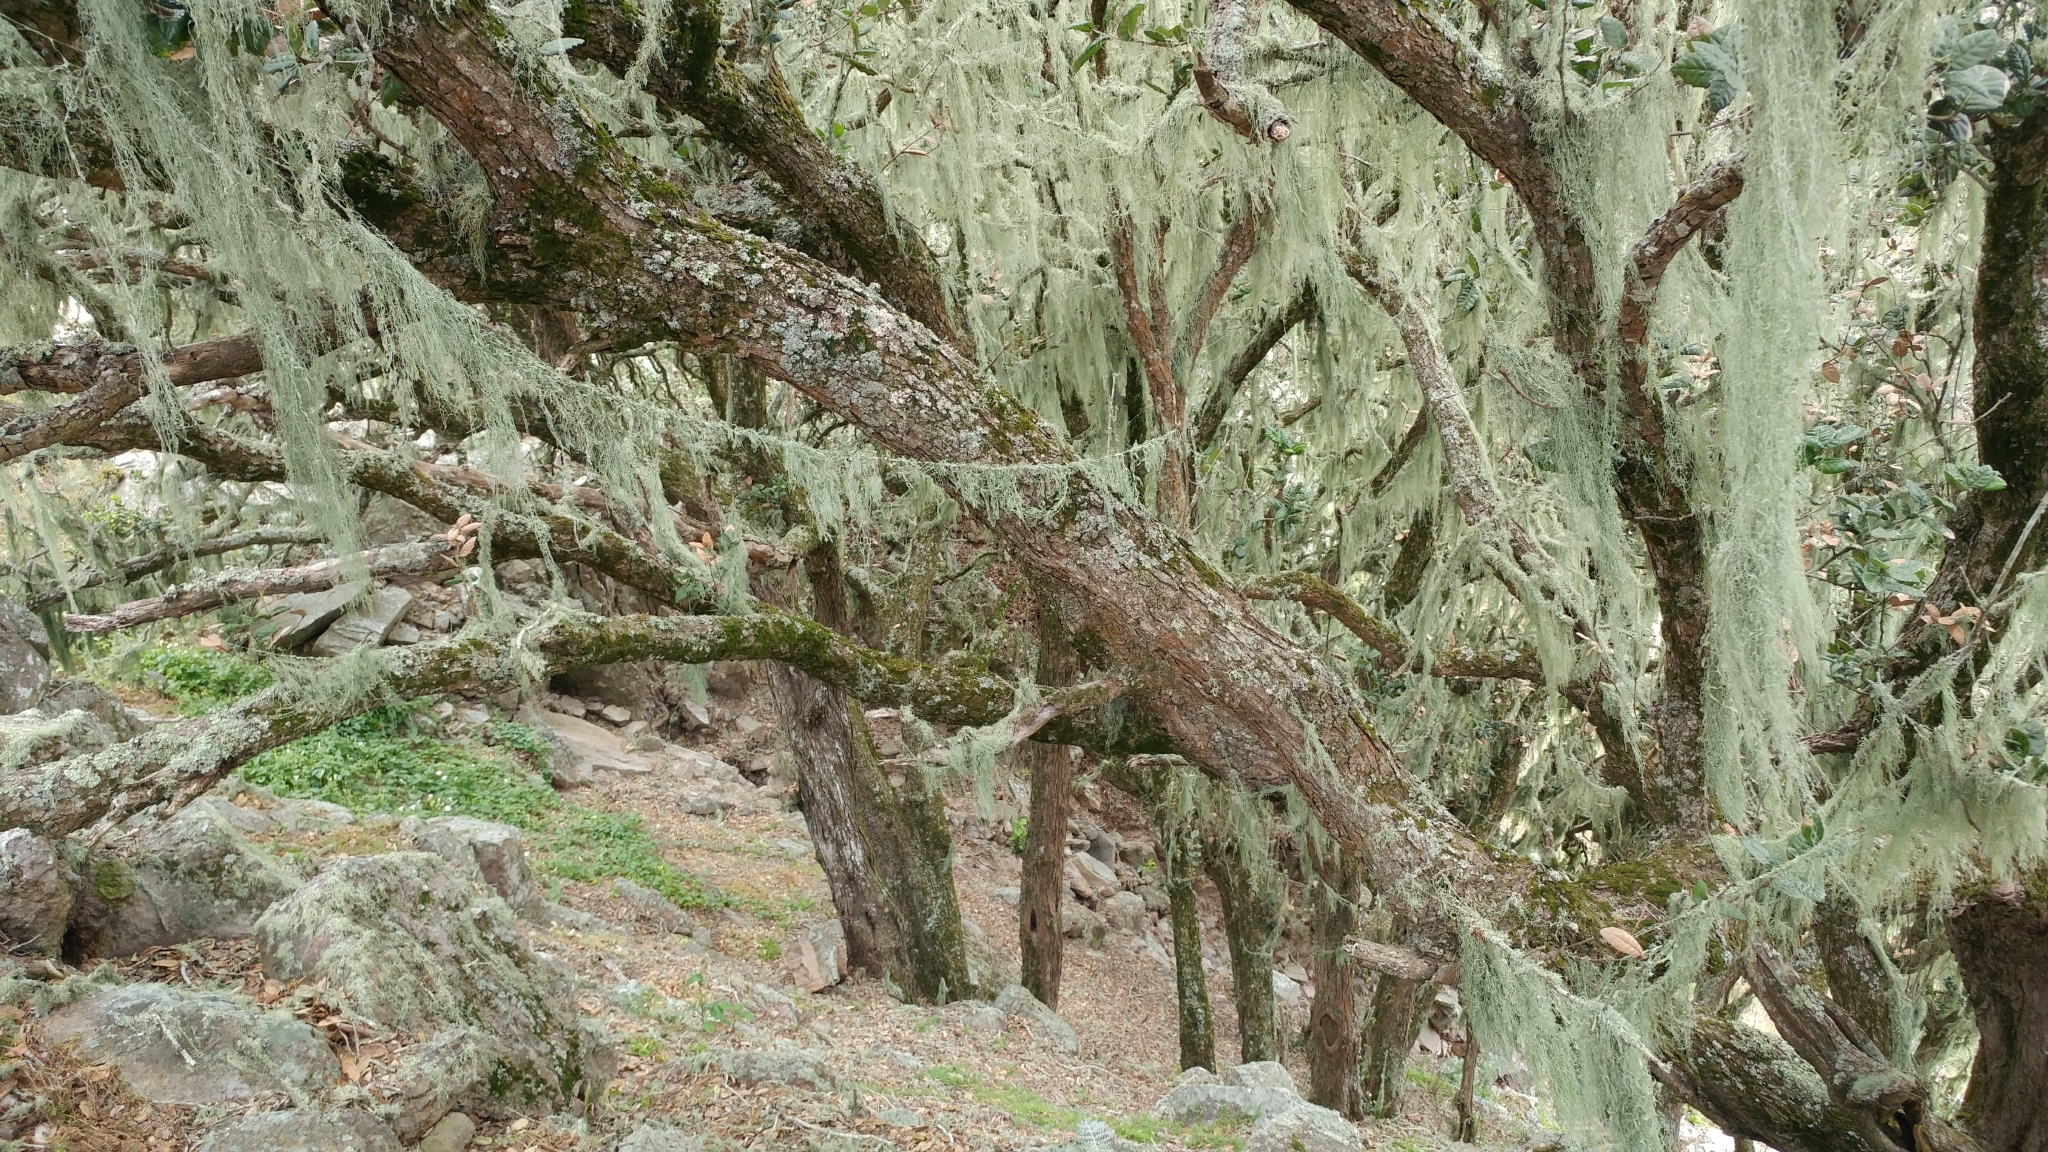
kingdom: Plantae
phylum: Tracheophyta
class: Magnoliopsida
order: Fagales
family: Fagaceae
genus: Quercus
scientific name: Quercus tomentella
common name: Island oak
